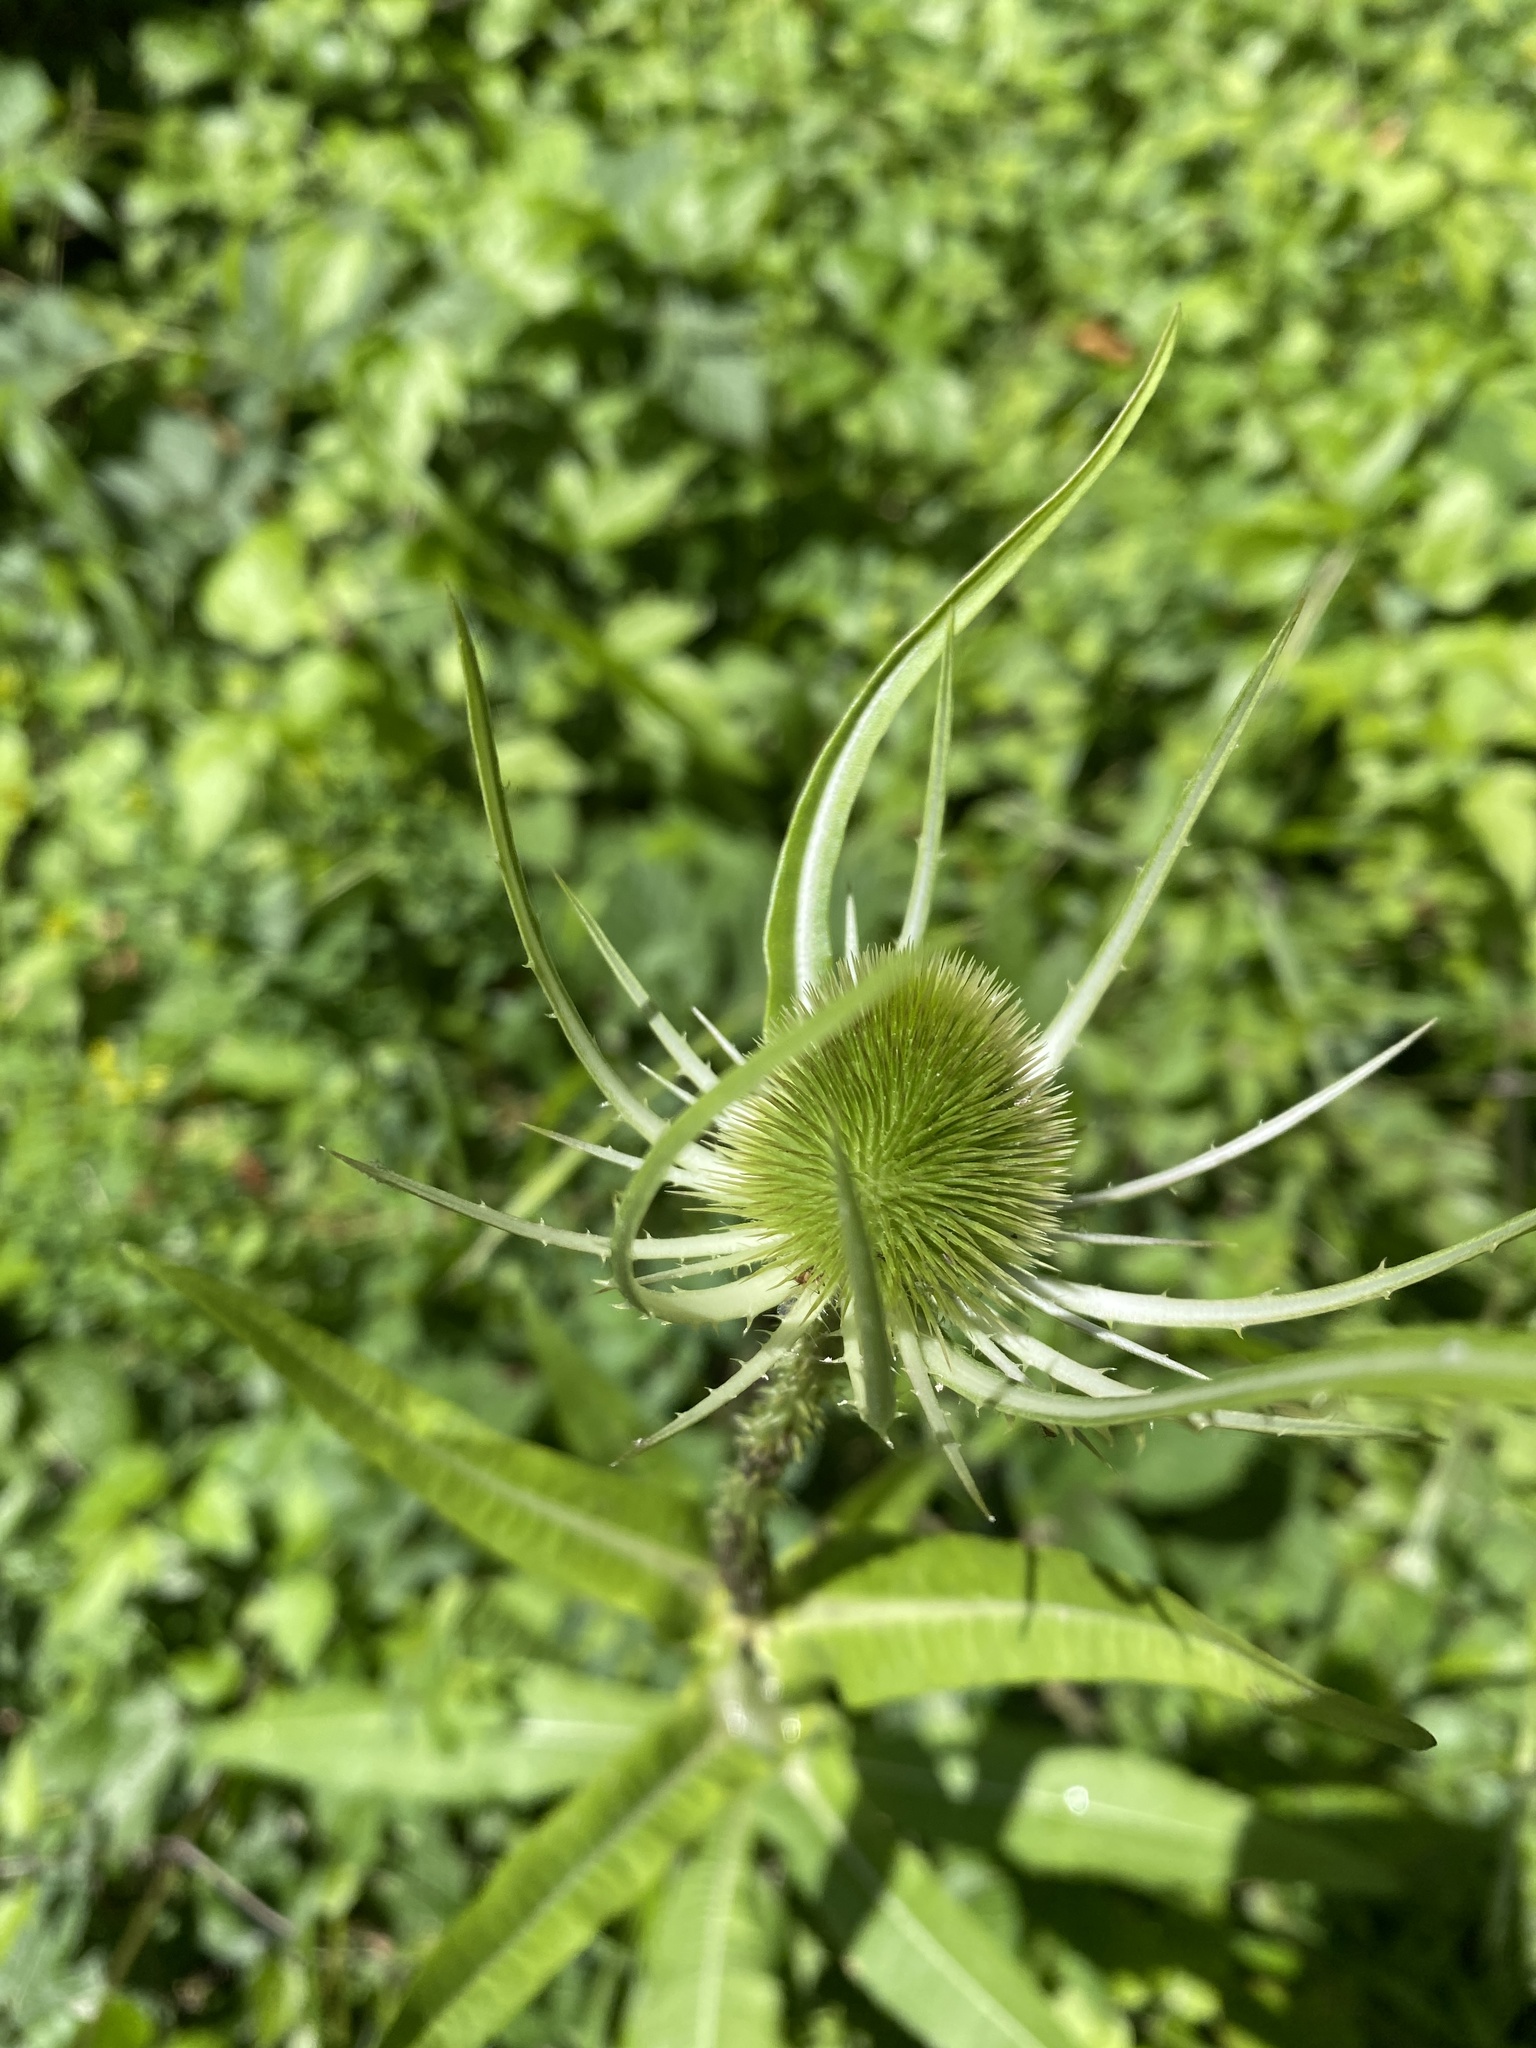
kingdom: Plantae
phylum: Tracheophyta
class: Magnoliopsida
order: Dipsacales
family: Caprifoliaceae
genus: Dipsacus
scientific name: Dipsacus fullonum
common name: Teasel
